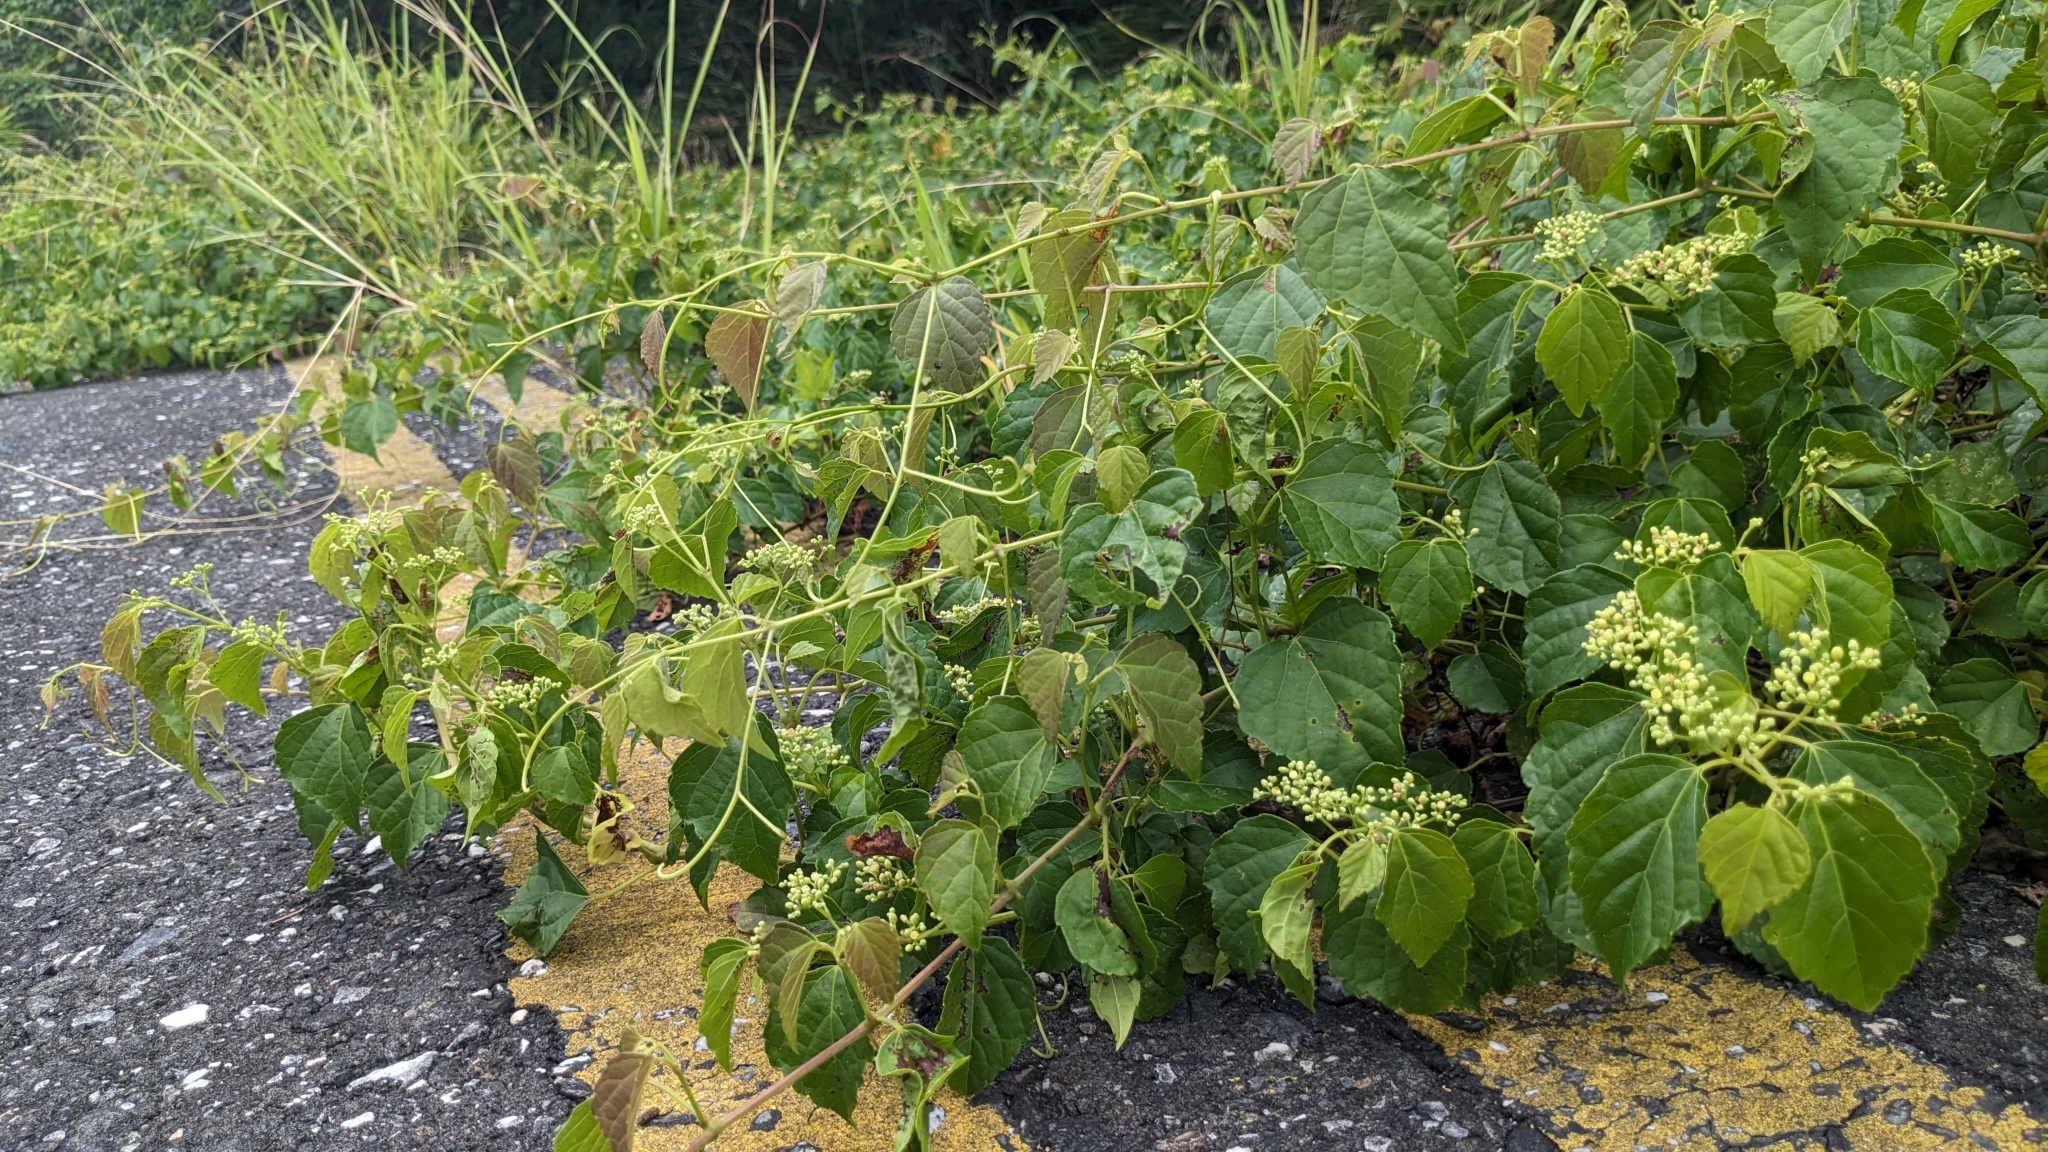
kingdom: Plantae
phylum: Tracheophyta
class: Magnoliopsida
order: Vitales
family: Vitaceae
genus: Ampelopsis
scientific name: Ampelopsis glandulosa
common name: Amur peppervine
